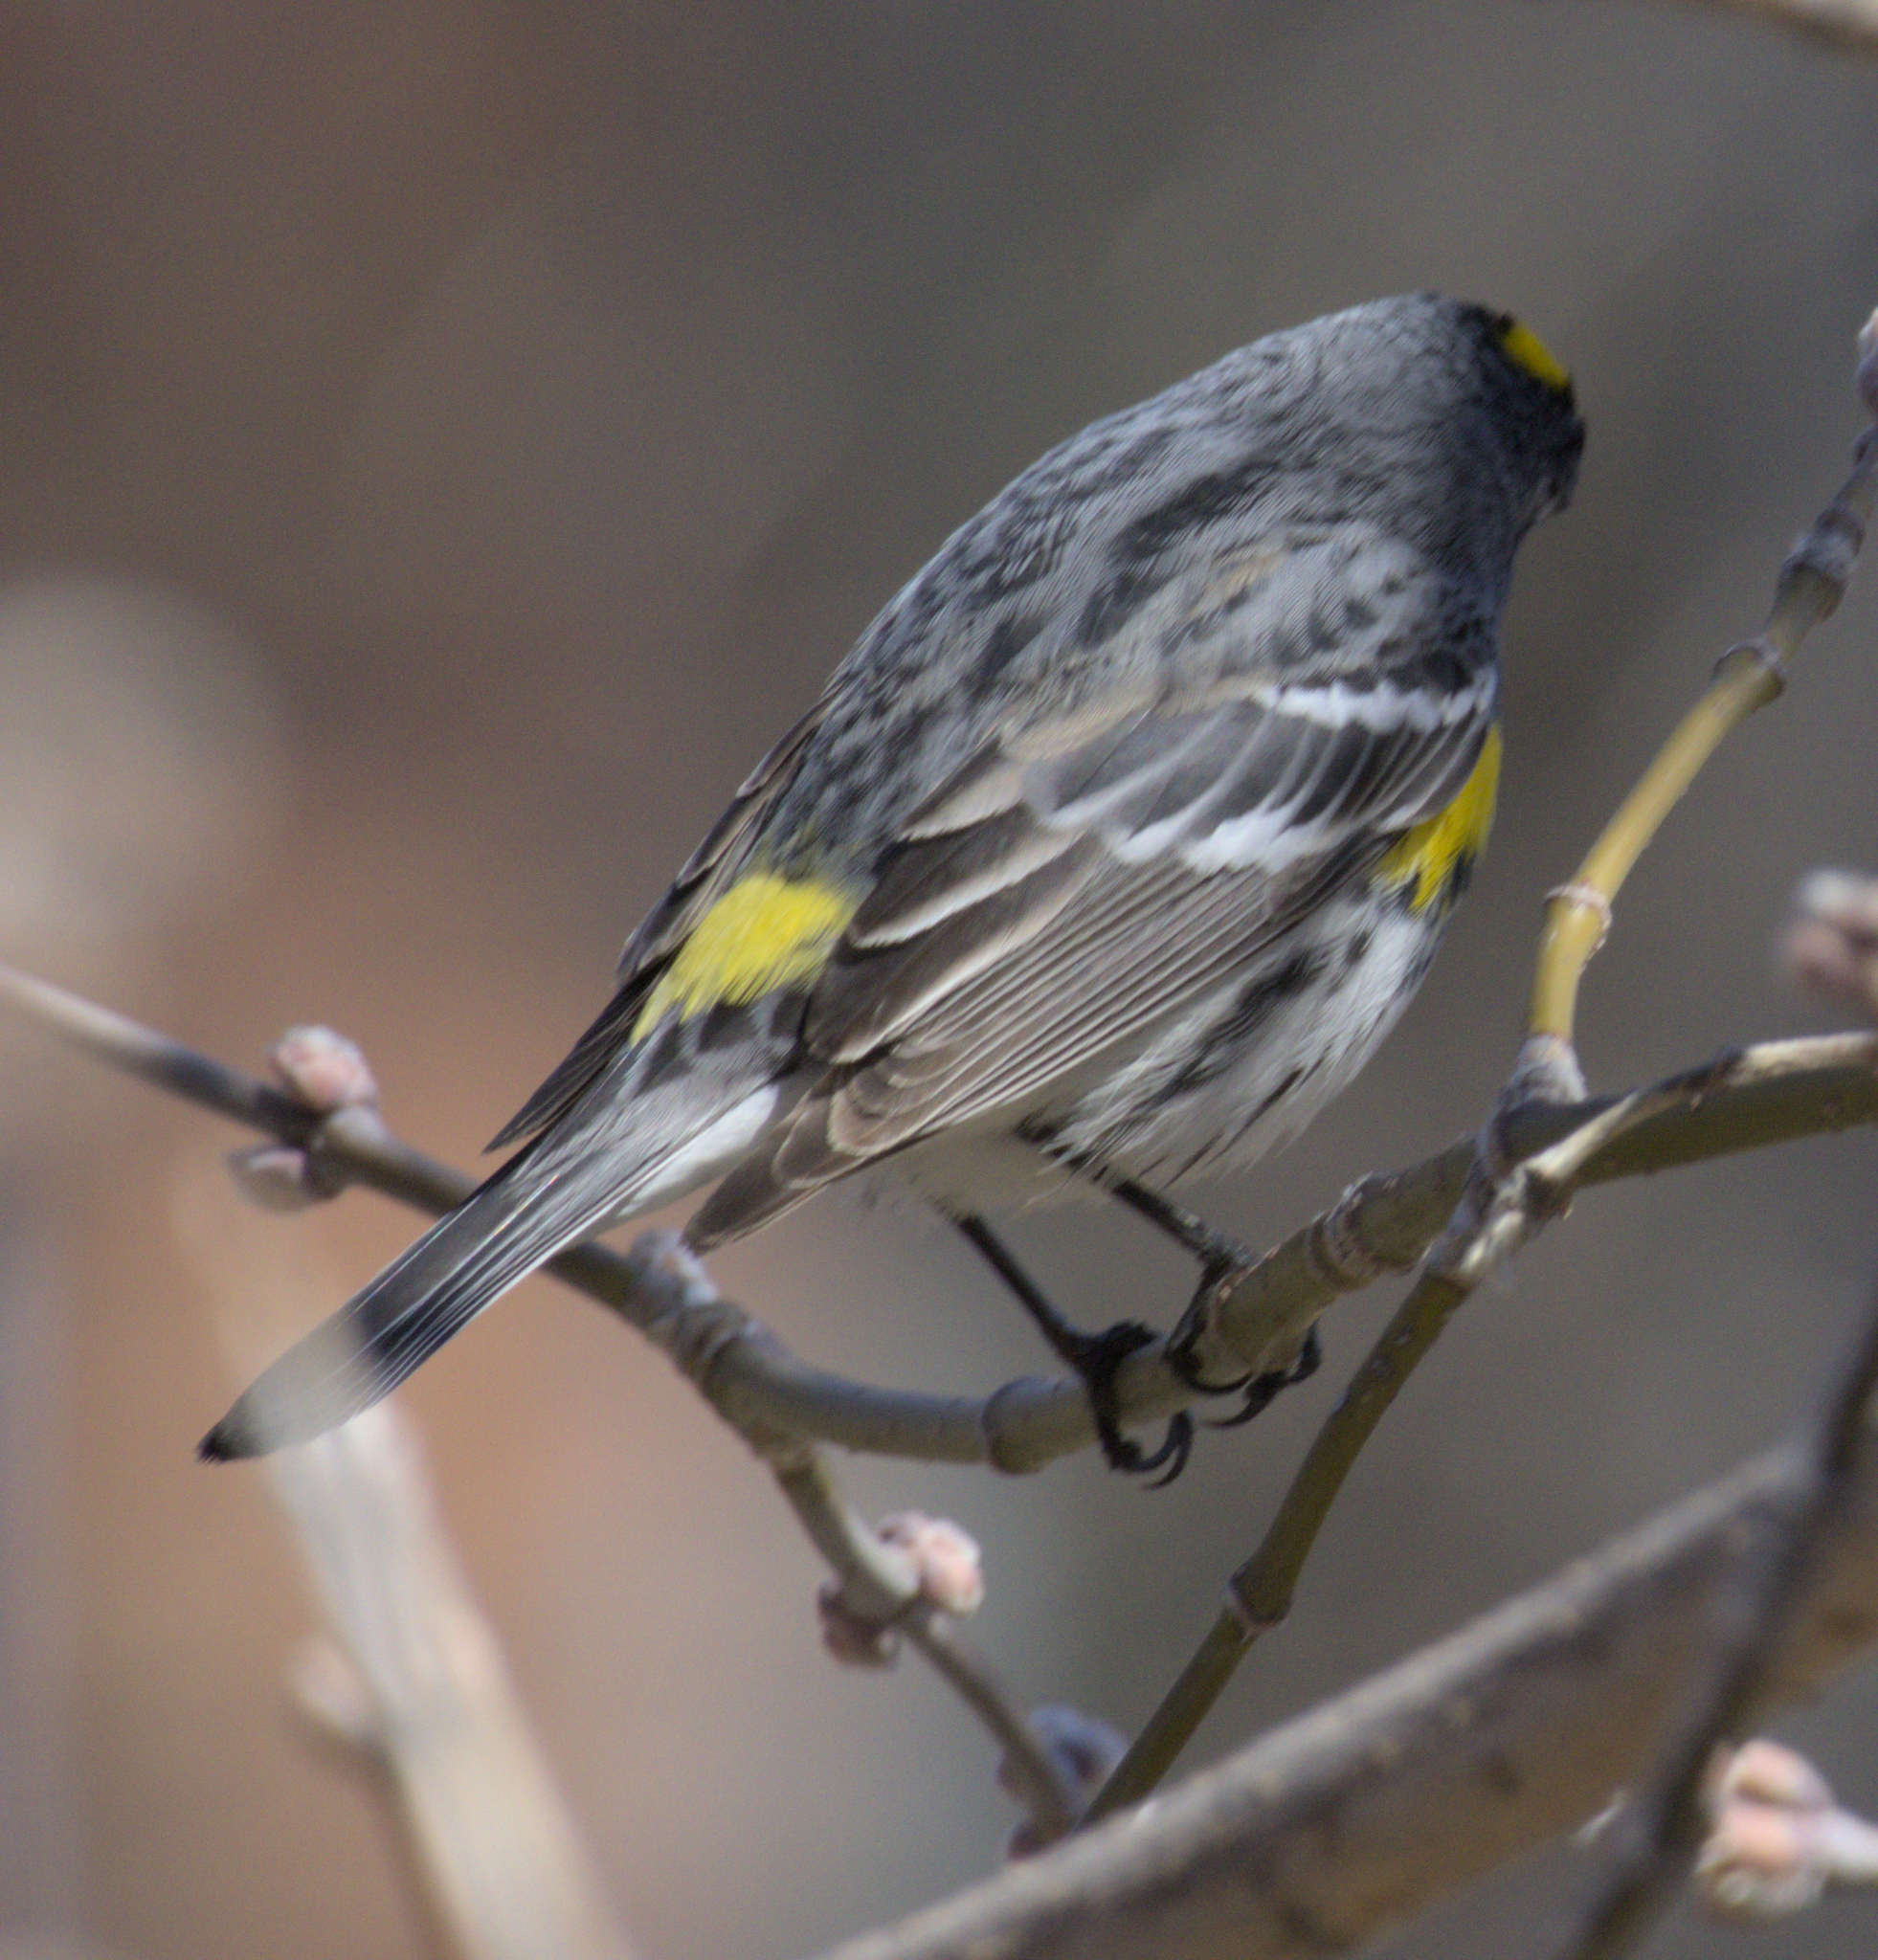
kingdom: Animalia
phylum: Chordata
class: Aves
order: Passeriformes
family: Parulidae
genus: Setophaga
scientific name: Setophaga coronata
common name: Myrtle warbler
